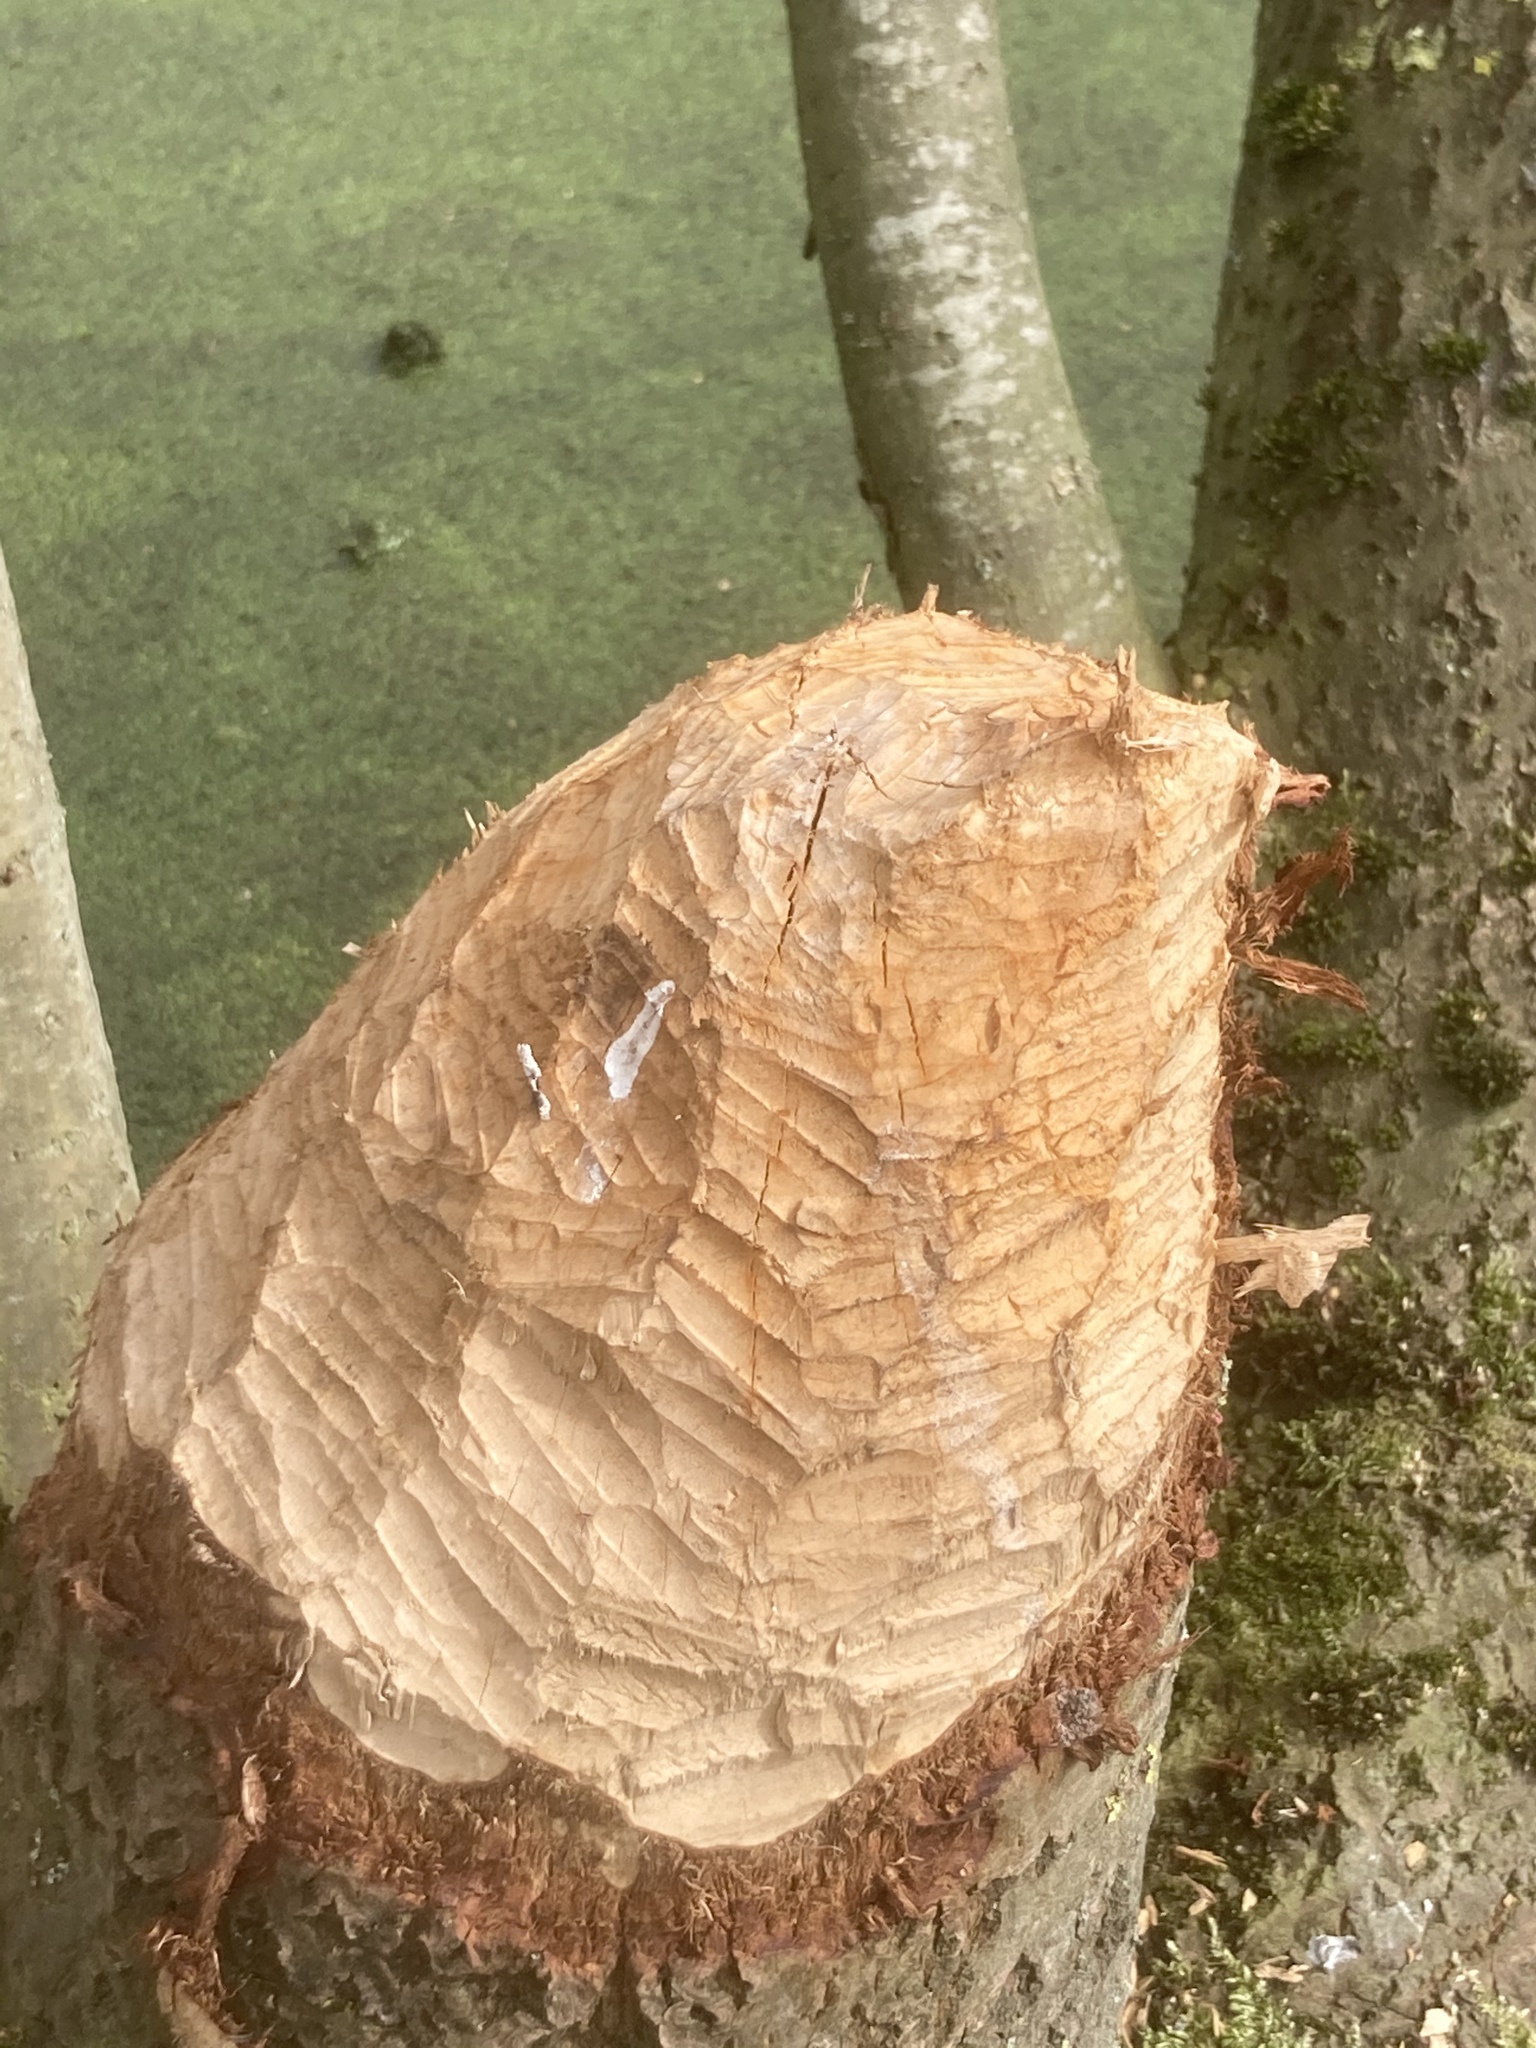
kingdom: Animalia
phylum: Chordata
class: Mammalia
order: Rodentia
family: Castoridae
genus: Castor
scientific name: Castor fiber
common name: Eurasian beaver
